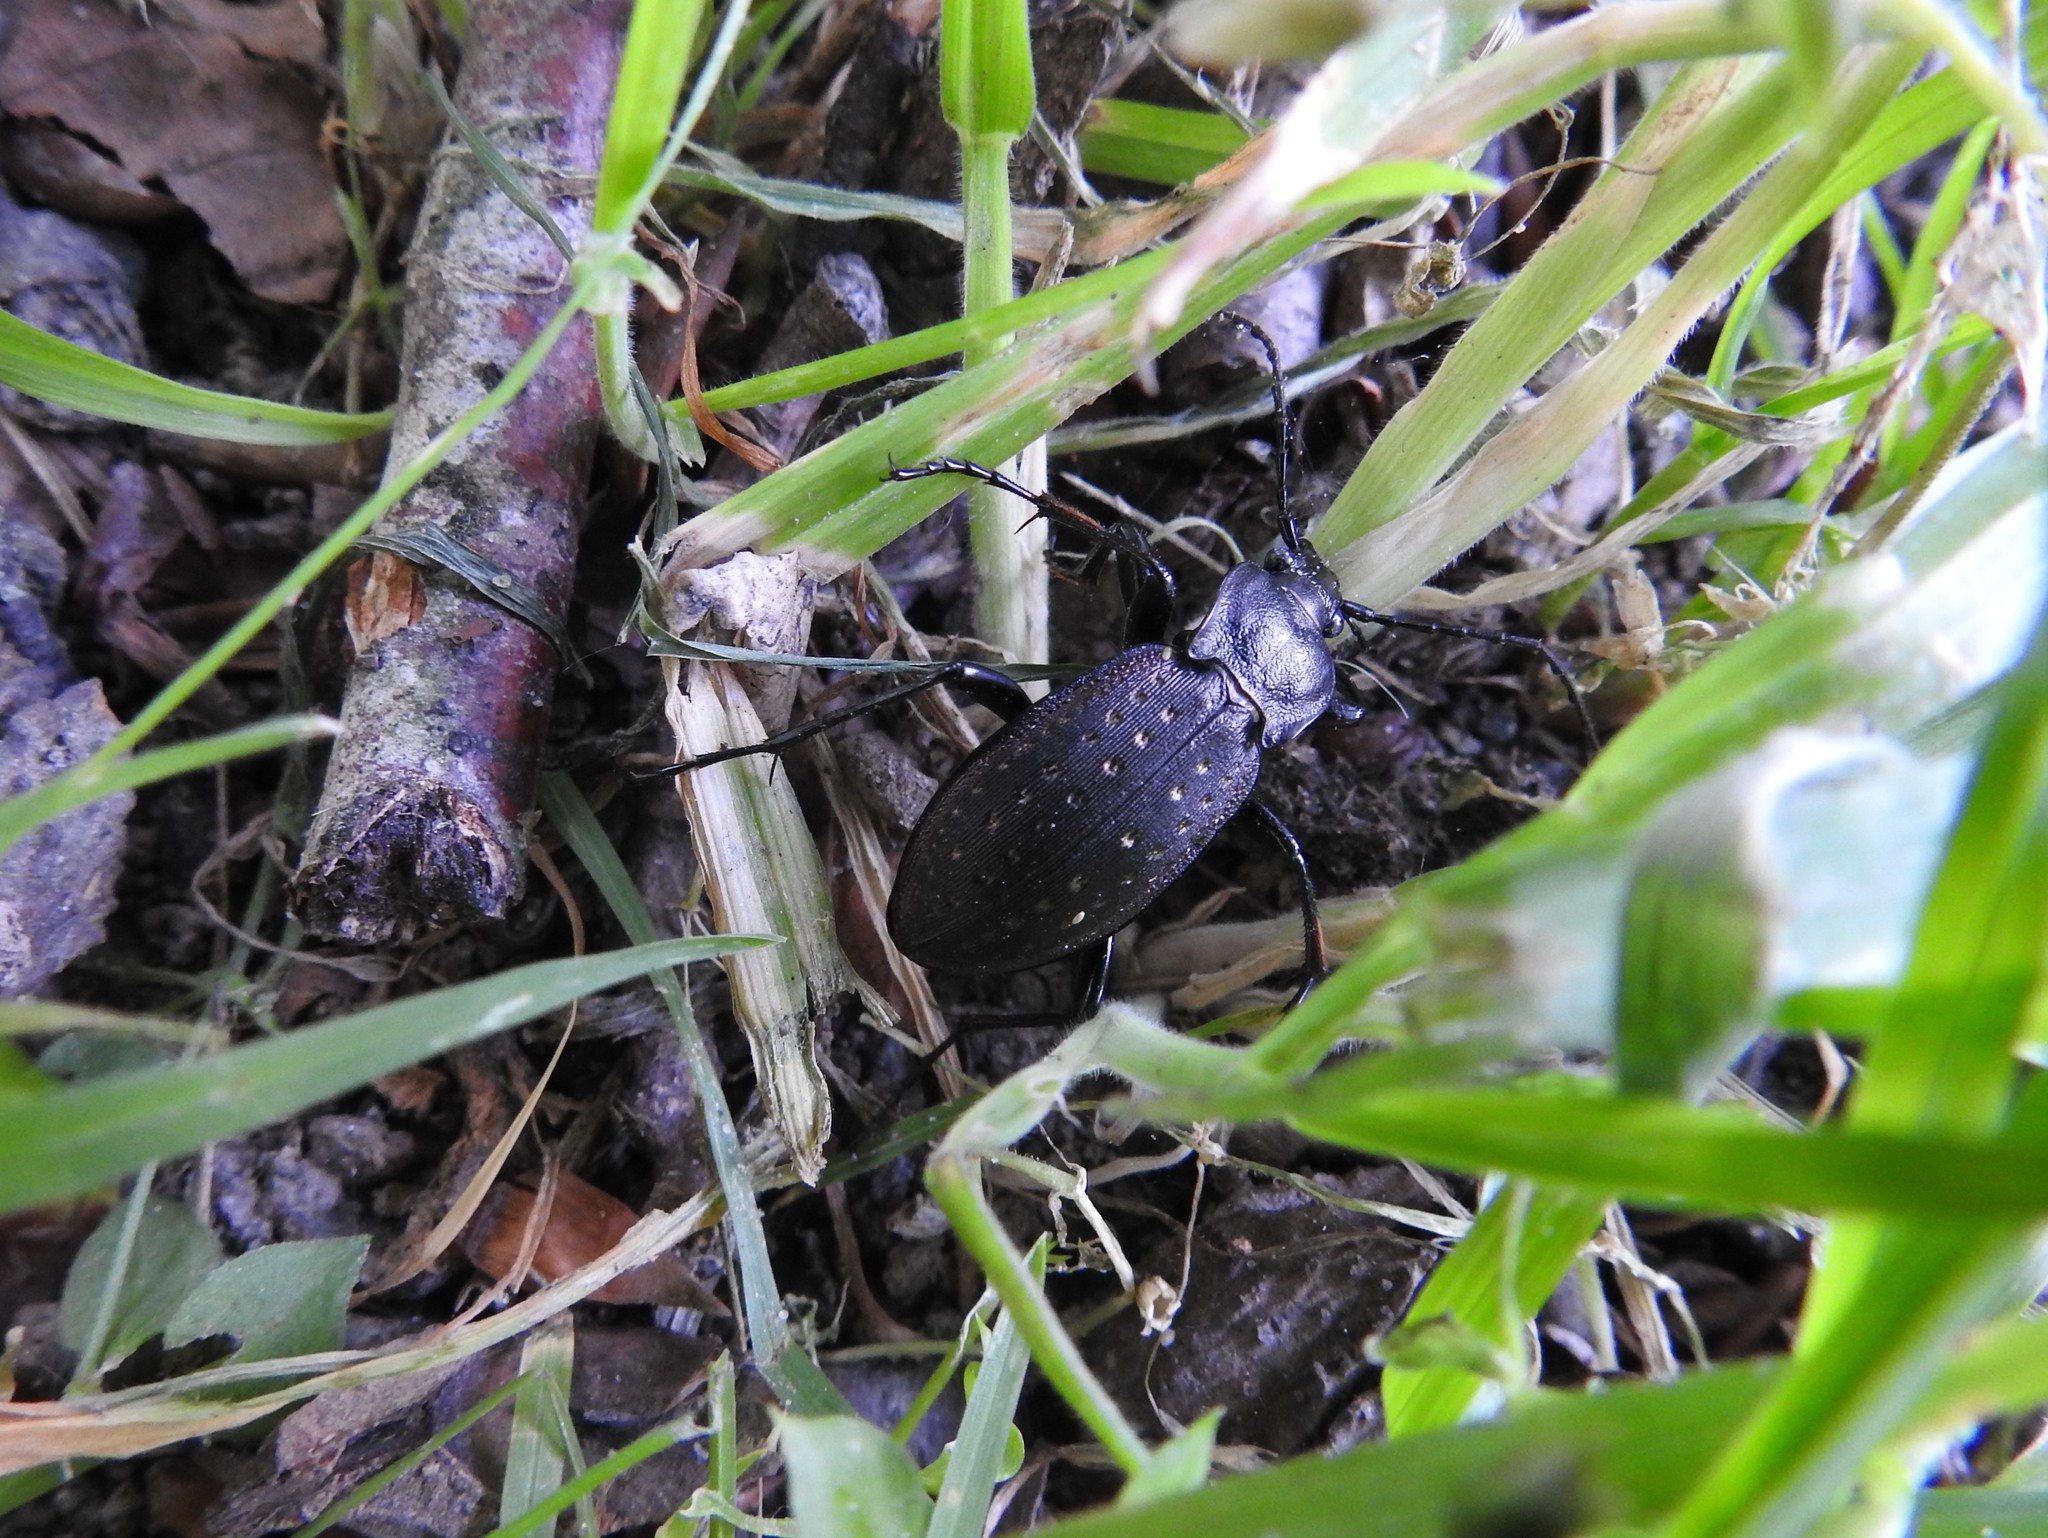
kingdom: Animalia
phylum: Arthropoda
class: Insecta
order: Coleoptera
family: Carabidae
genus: Carabus
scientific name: Carabus hortensis
